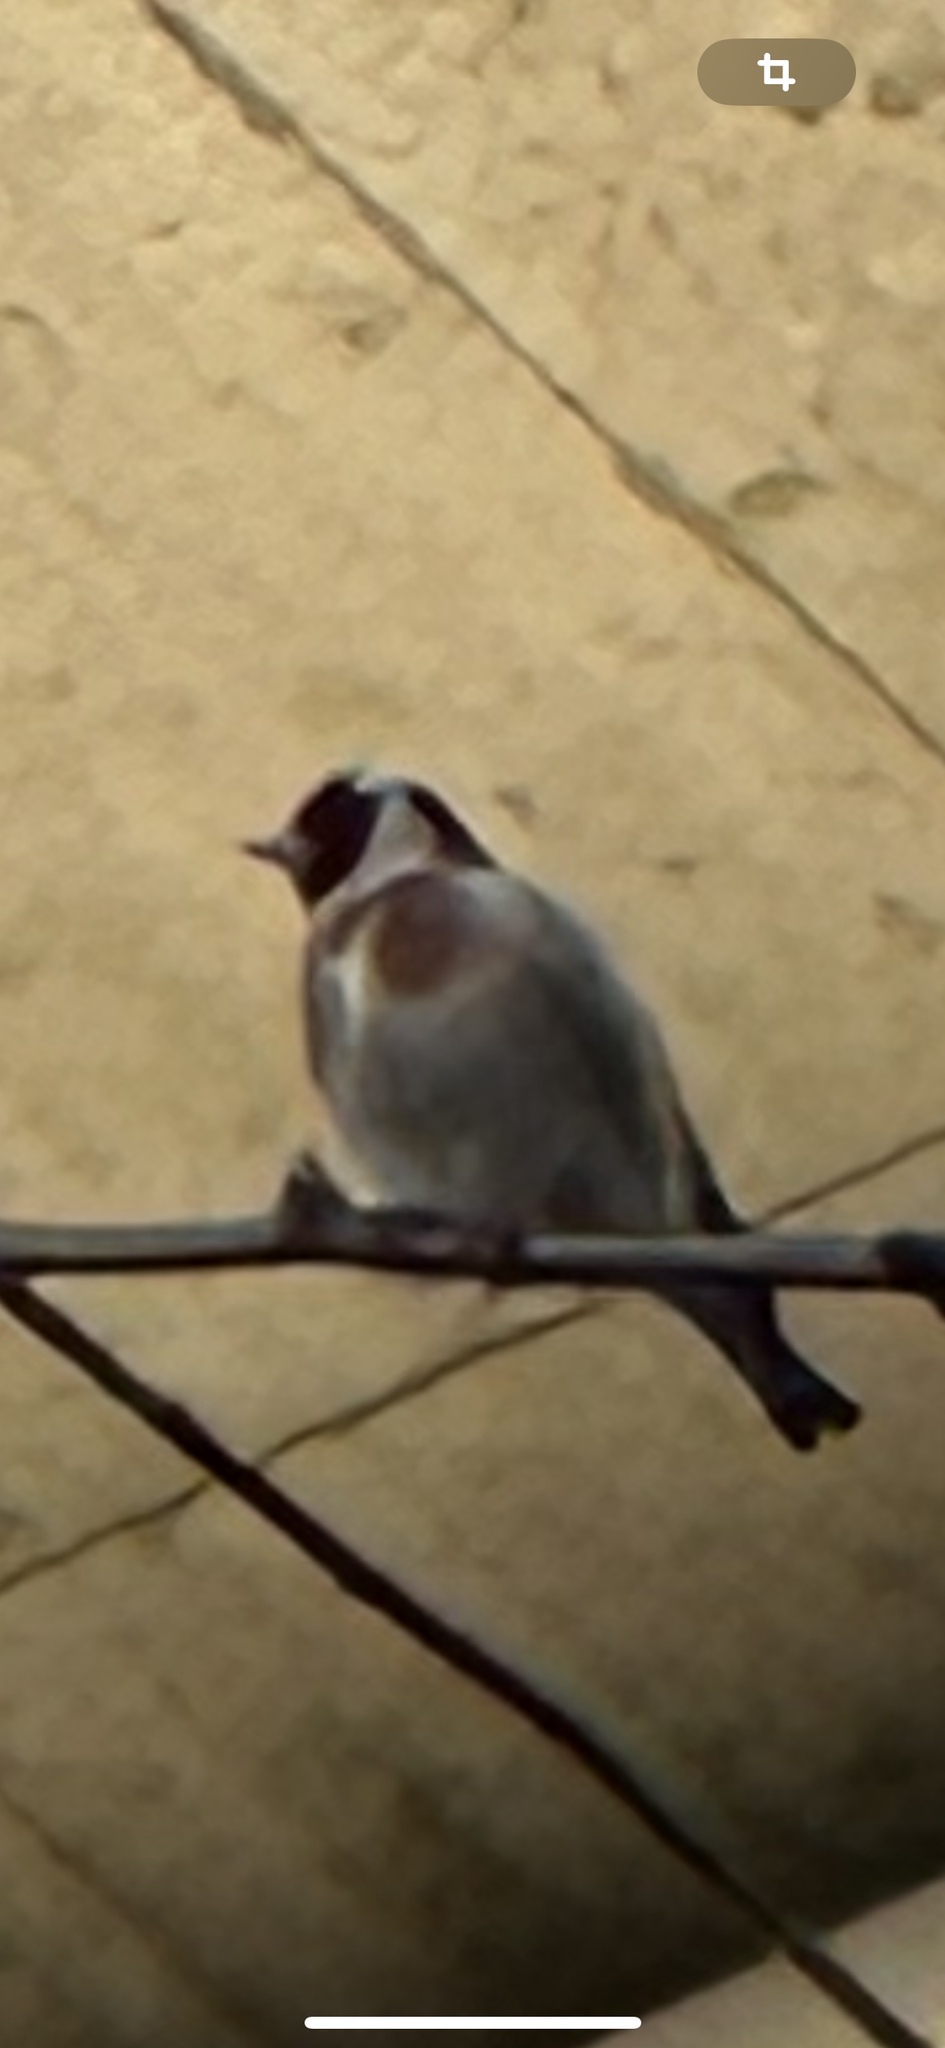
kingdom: Animalia
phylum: Chordata
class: Aves
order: Passeriformes
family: Fringillidae
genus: Carduelis
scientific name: Carduelis carduelis
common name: European goldfinch
